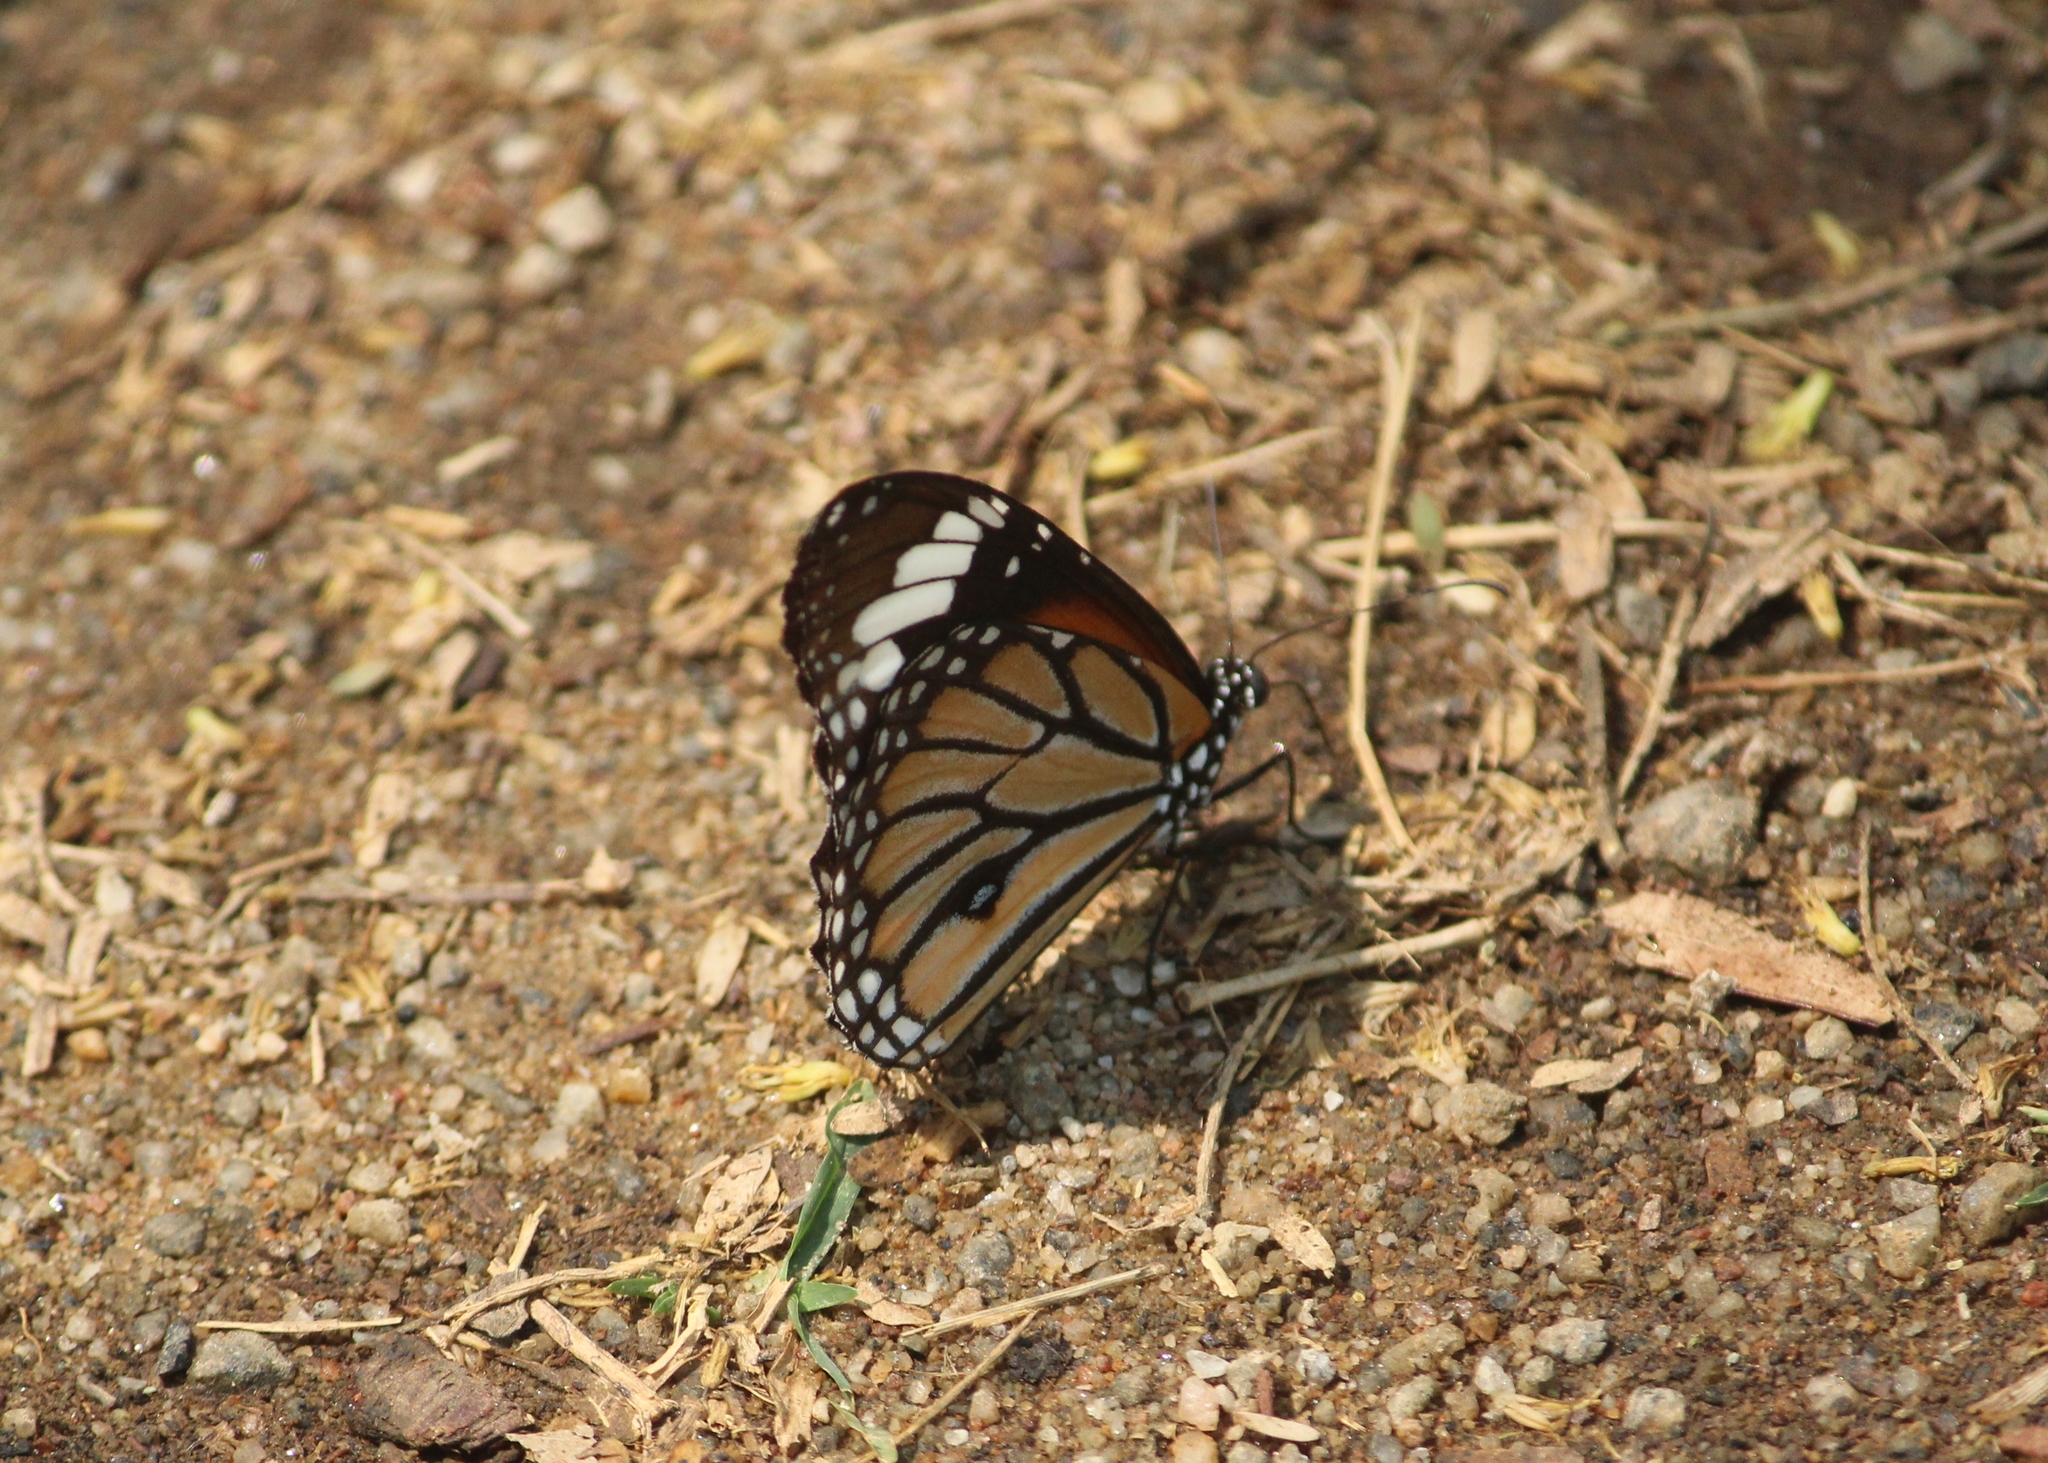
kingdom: Animalia
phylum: Arthropoda
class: Insecta
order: Lepidoptera
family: Nymphalidae
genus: Danaus
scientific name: Danaus genutia
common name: Common tiger butterfly
